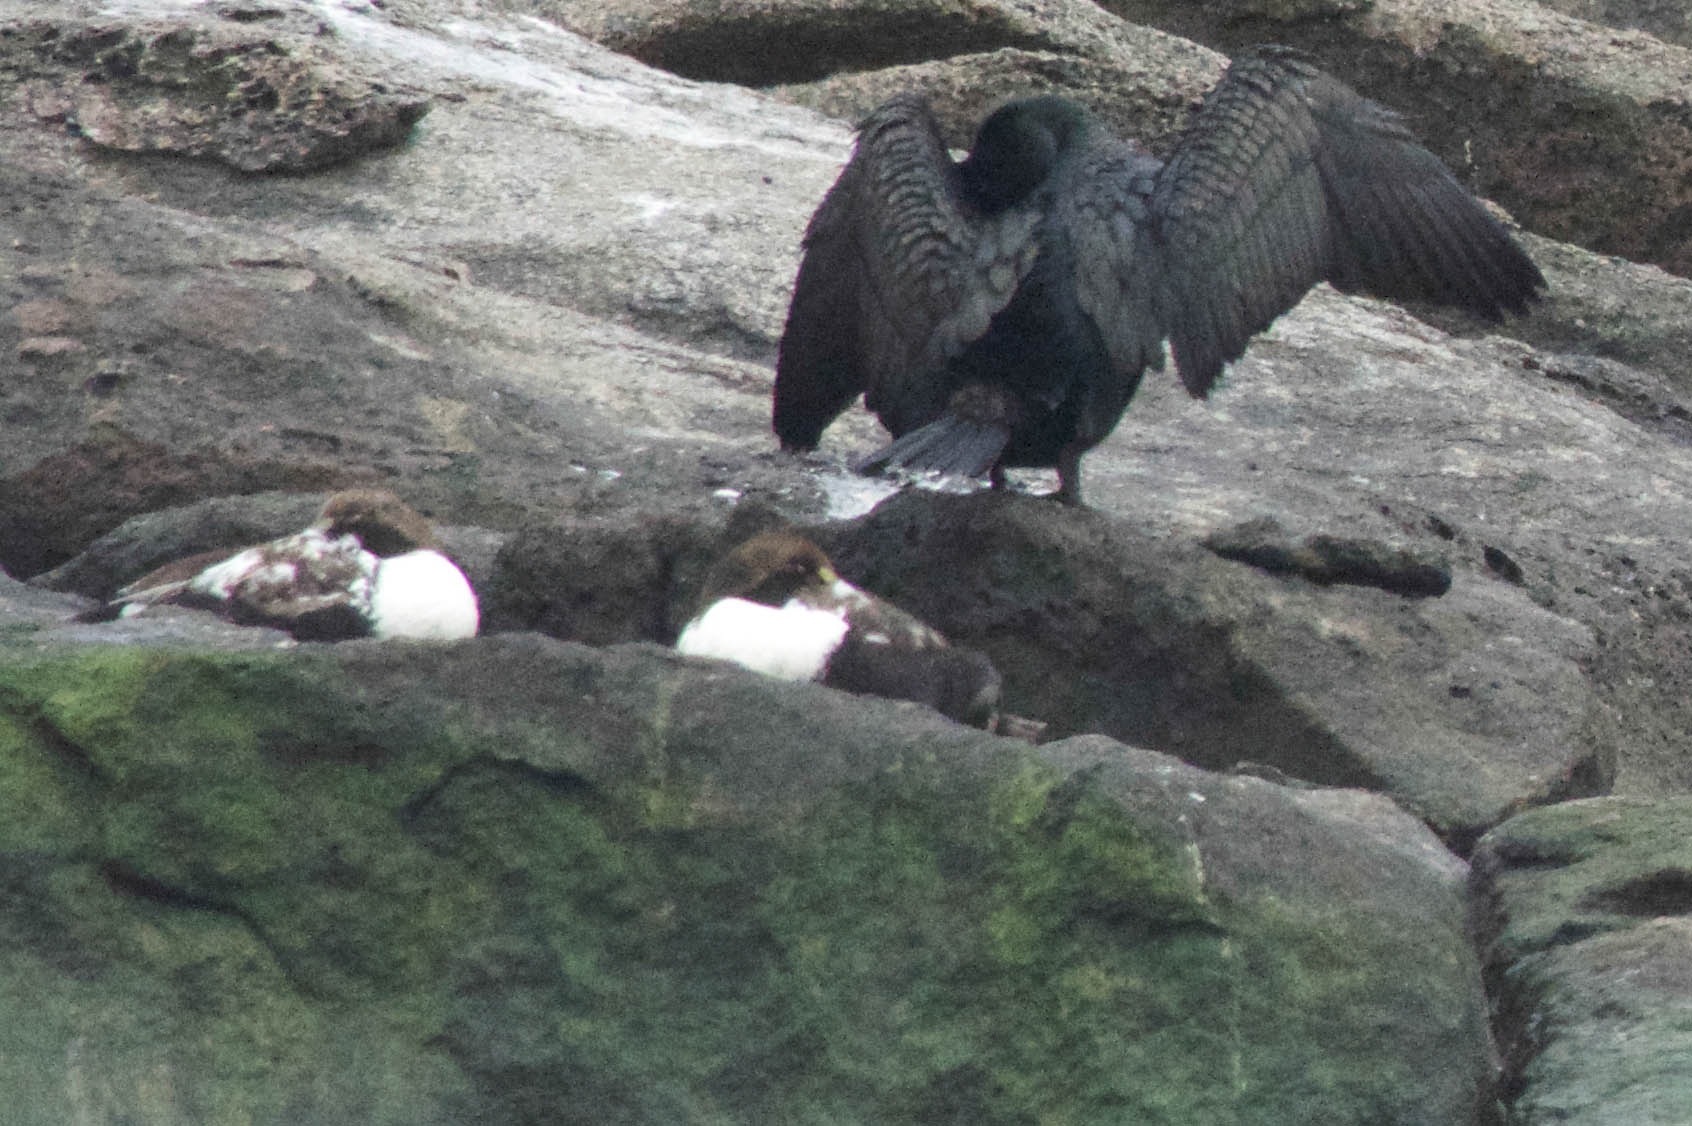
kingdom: Animalia
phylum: Chordata
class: Aves
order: Suliformes
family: Phalacrocoracidae
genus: Phalacrocorax
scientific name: Phalacrocorax auritus
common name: Double-crested cormorant
